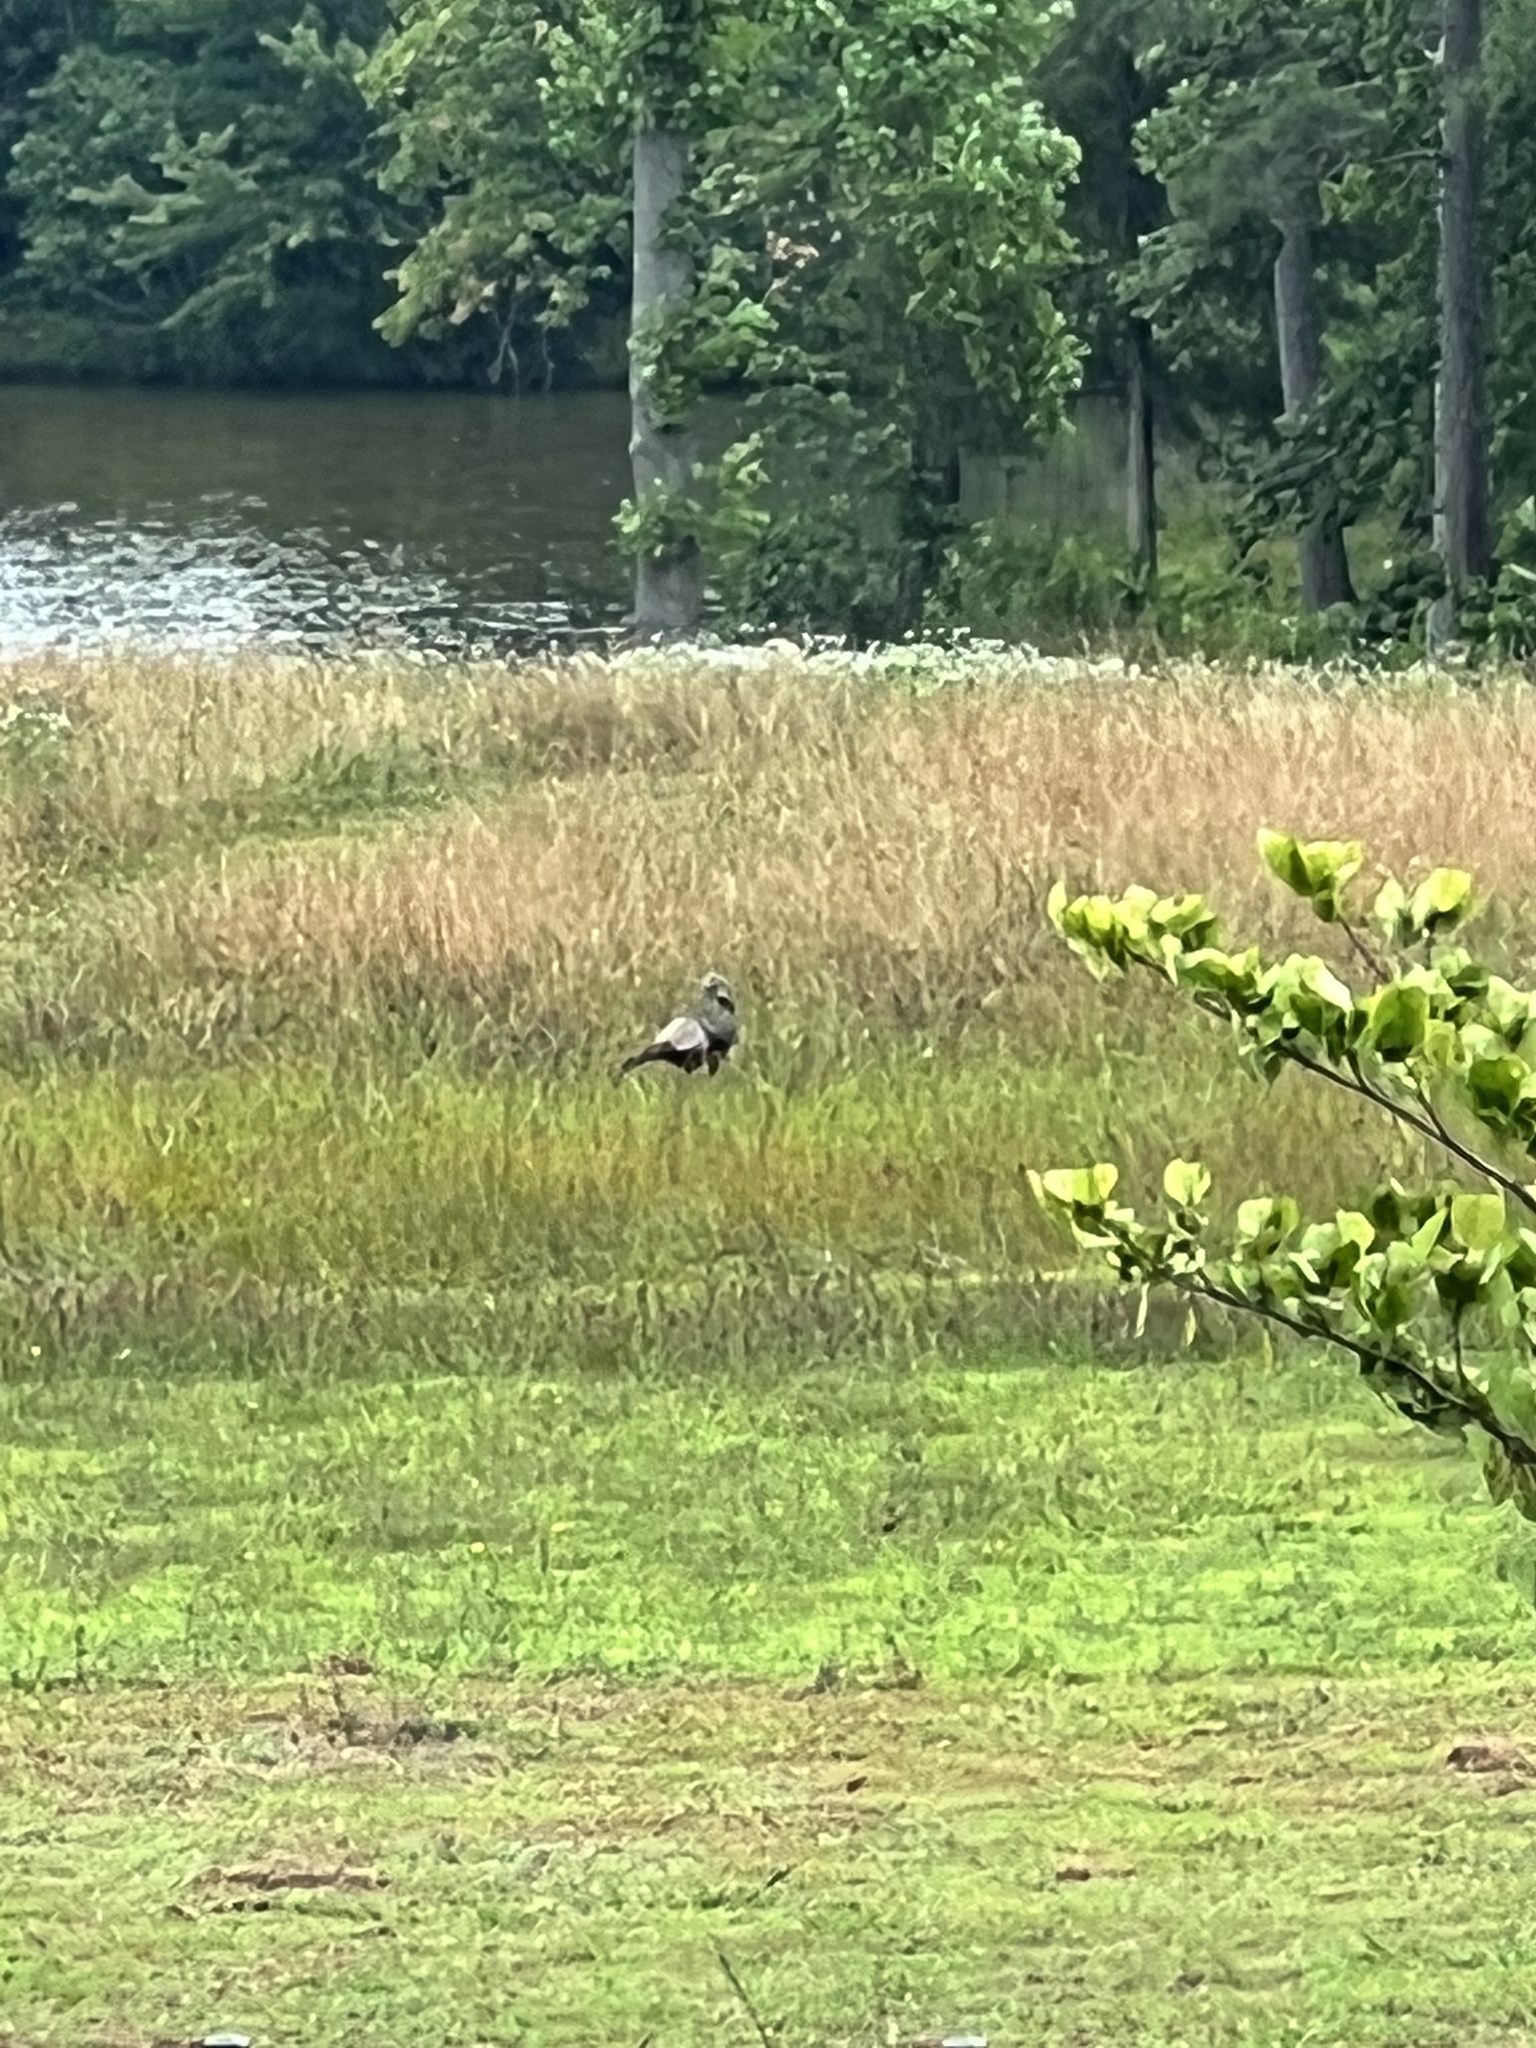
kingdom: Animalia
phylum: Chordata
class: Aves
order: Galliformes
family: Phasianidae
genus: Meleagris
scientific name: Meleagris gallopavo
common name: Wild turkey
